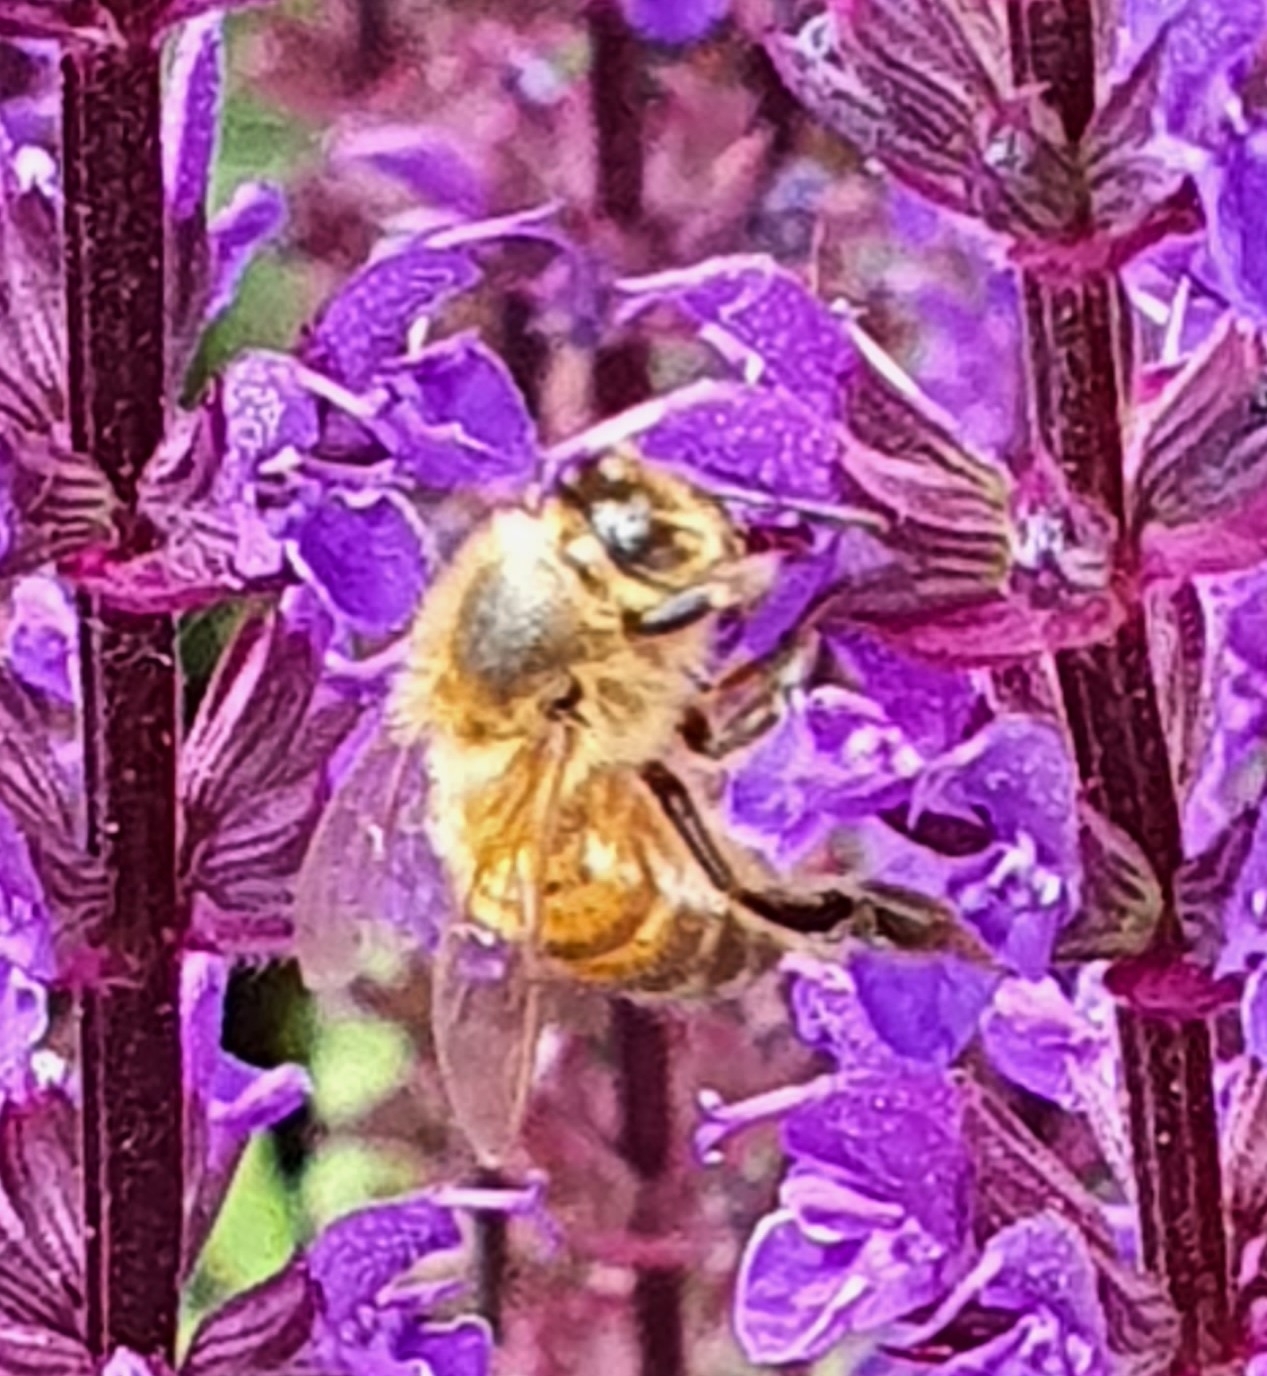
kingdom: Animalia
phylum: Arthropoda
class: Insecta
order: Hymenoptera
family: Apidae
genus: Apis
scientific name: Apis mellifera
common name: Honey bee
